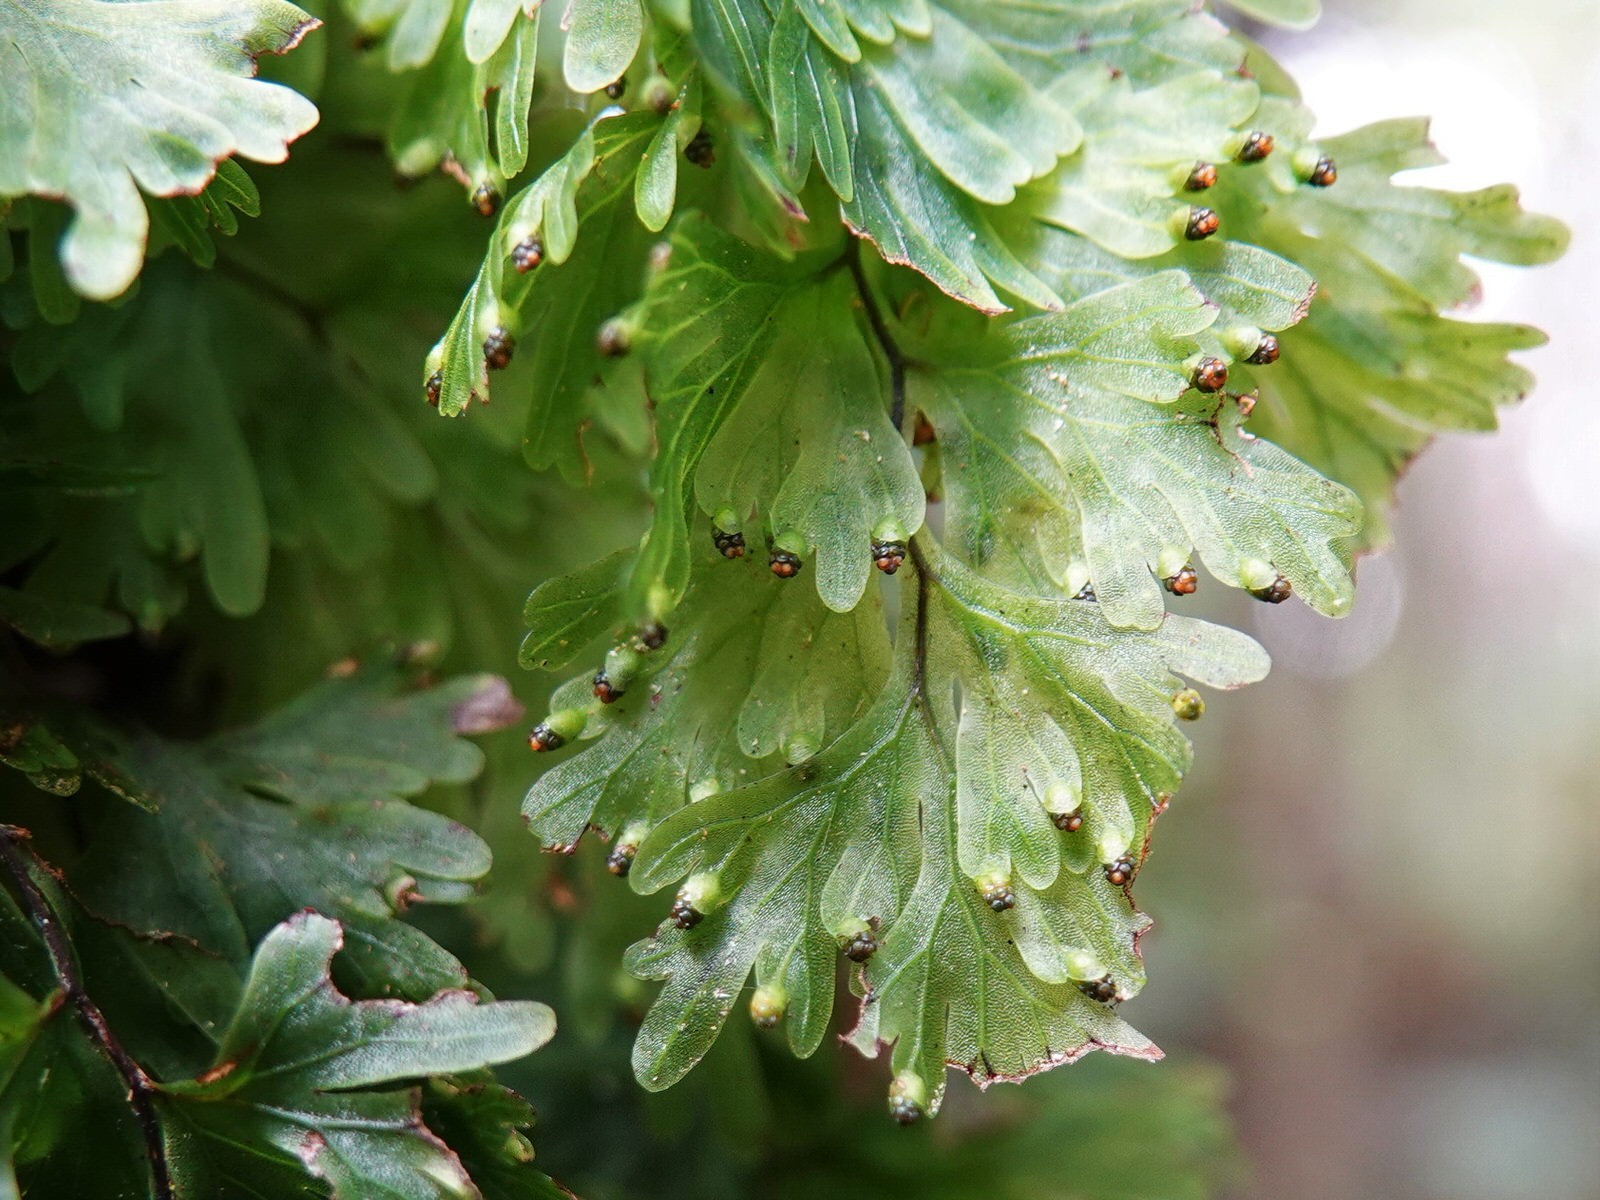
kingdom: Plantae
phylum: Tracheophyta
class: Polypodiopsida
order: Hymenophyllales
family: Hymenophyllaceae
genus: Hymenophyllum
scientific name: Hymenophyllum flabellatum
